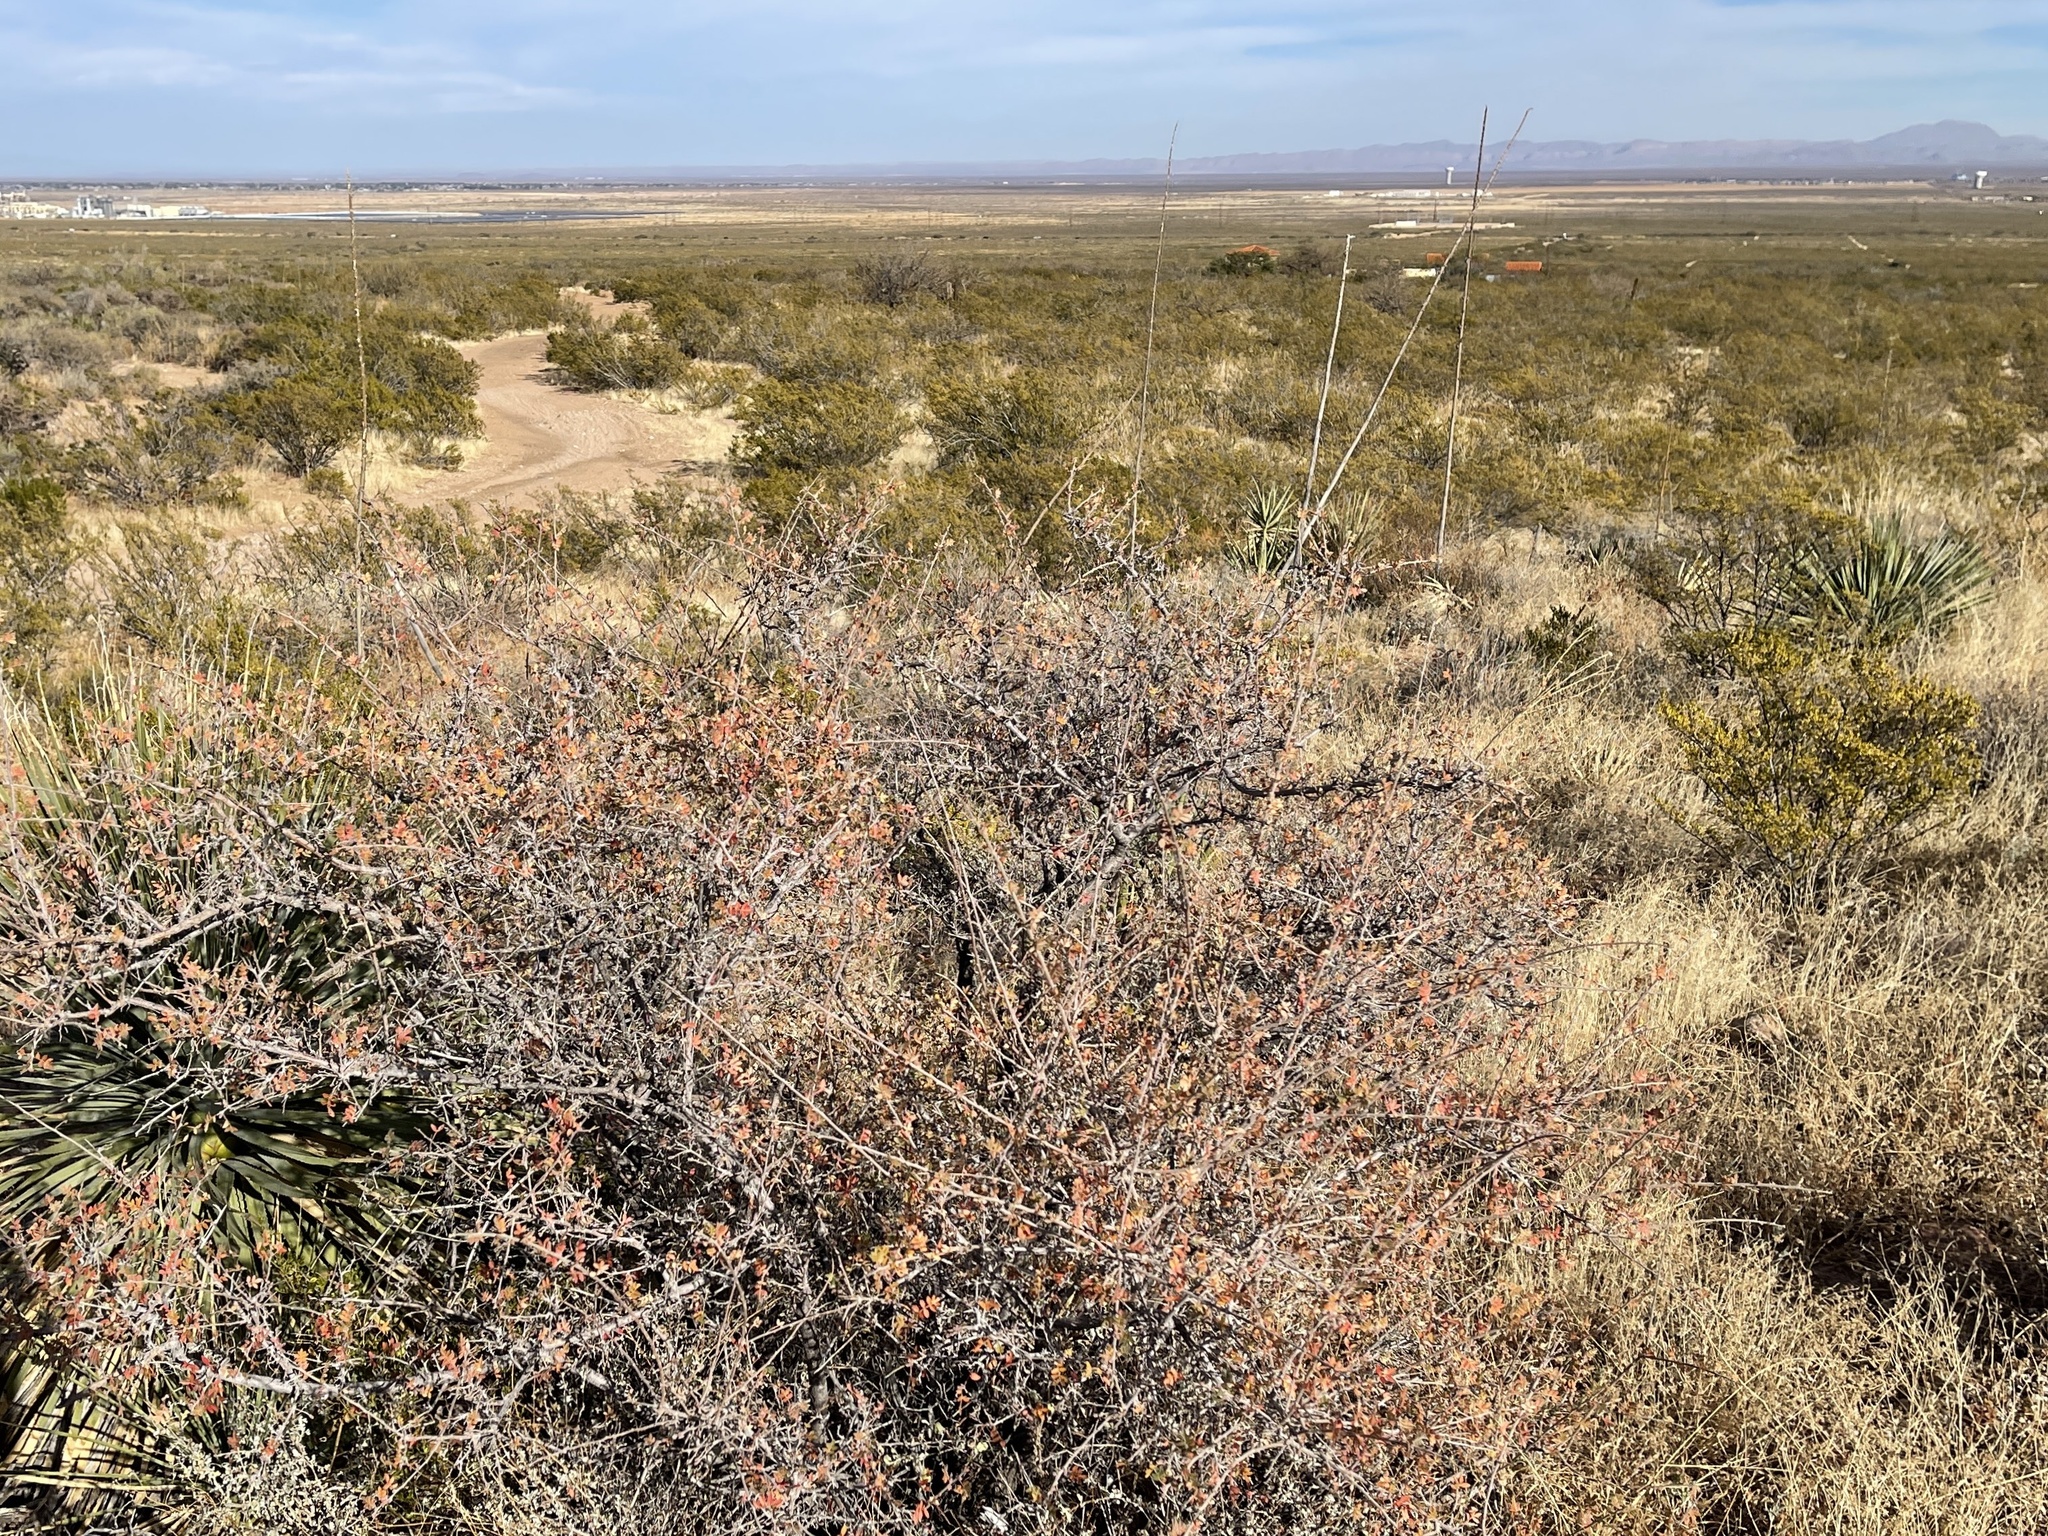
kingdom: Plantae
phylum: Tracheophyta
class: Magnoliopsida
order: Sapindales
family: Anacardiaceae
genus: Rhus
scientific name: Rhus microphylla
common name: Desert sumac
